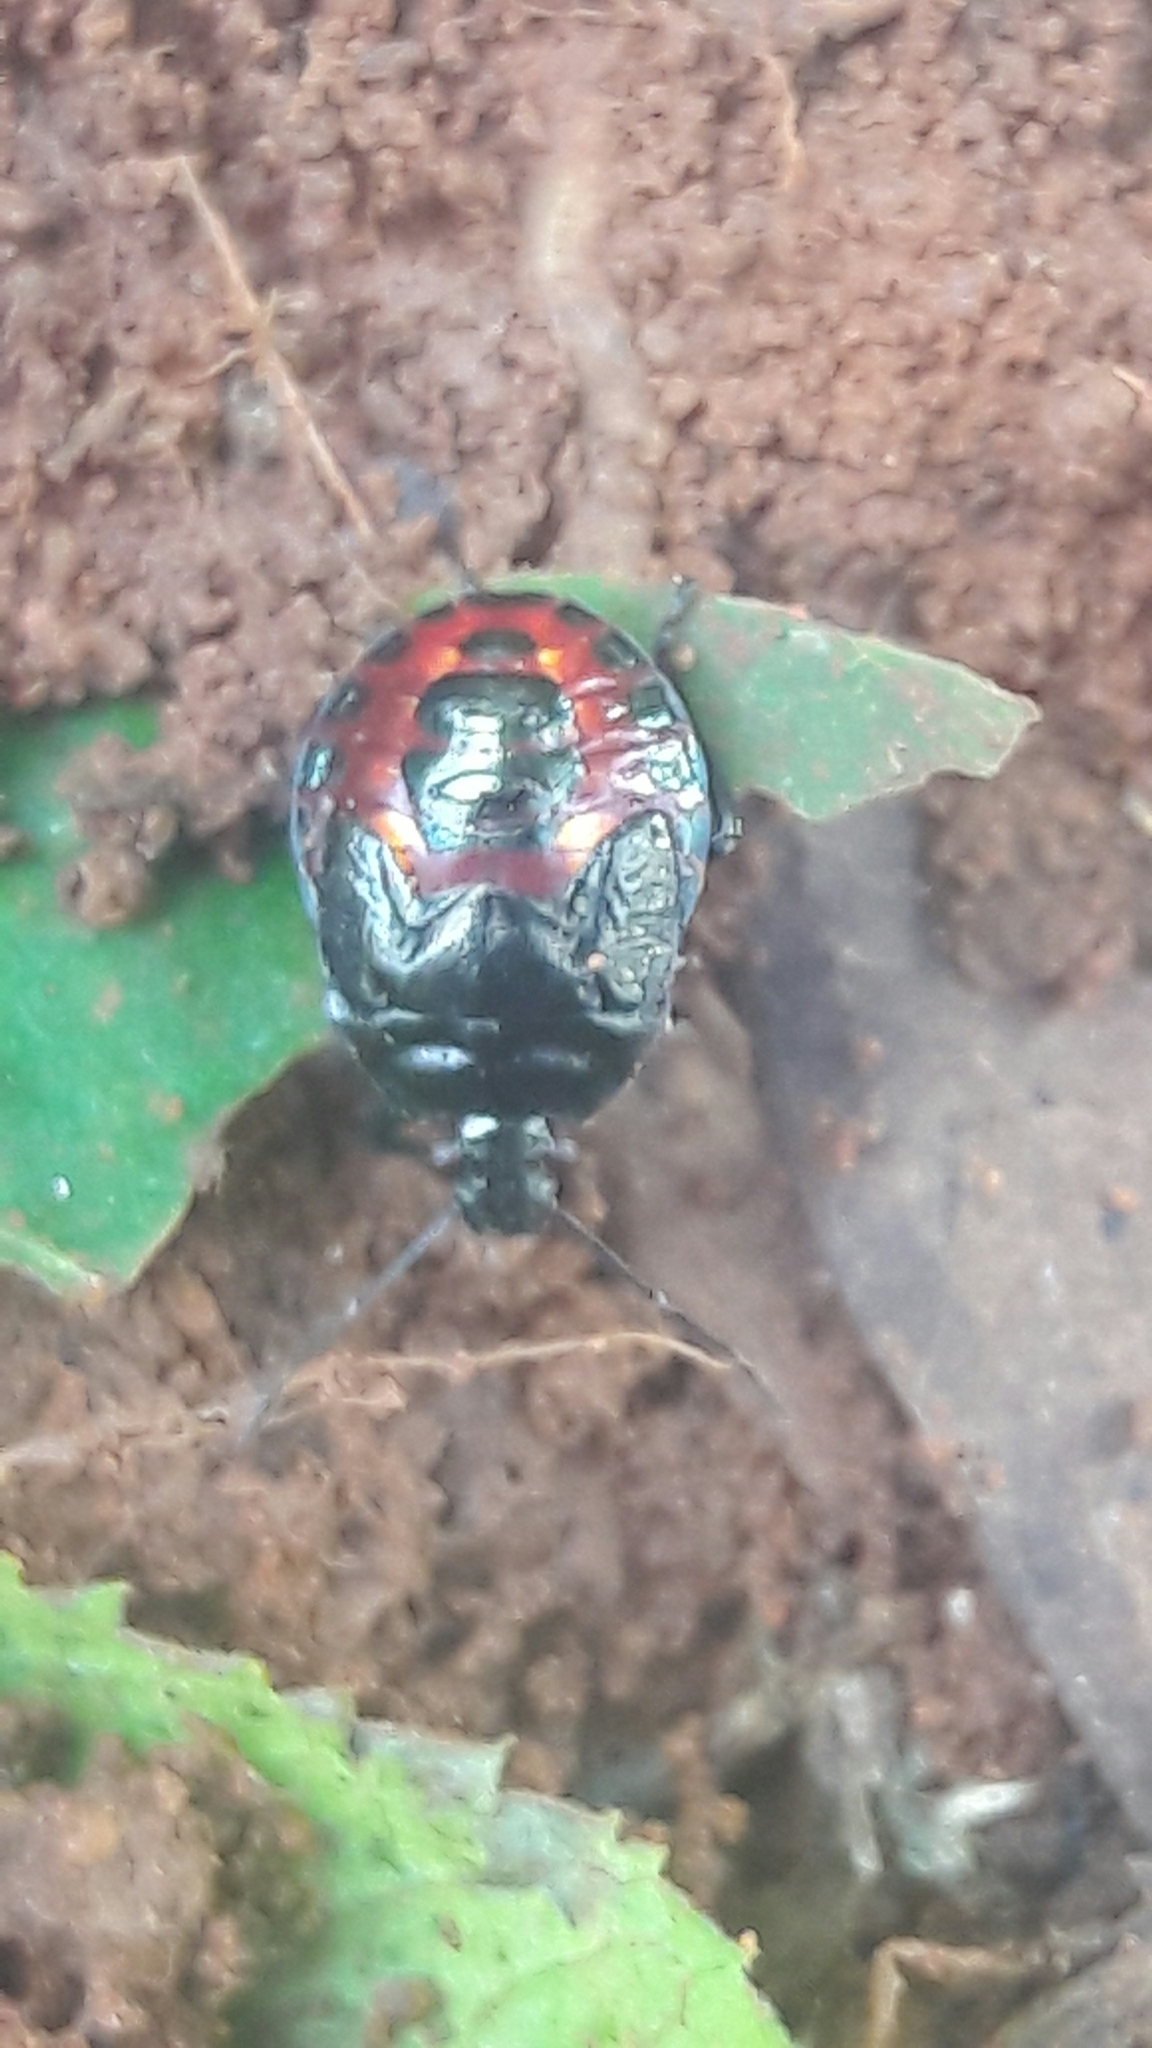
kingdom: Animalia
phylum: Arthropoda
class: Insecta
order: Hemiptera
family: Pentatomidae
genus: Podisus
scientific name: Podisus fuscescens
